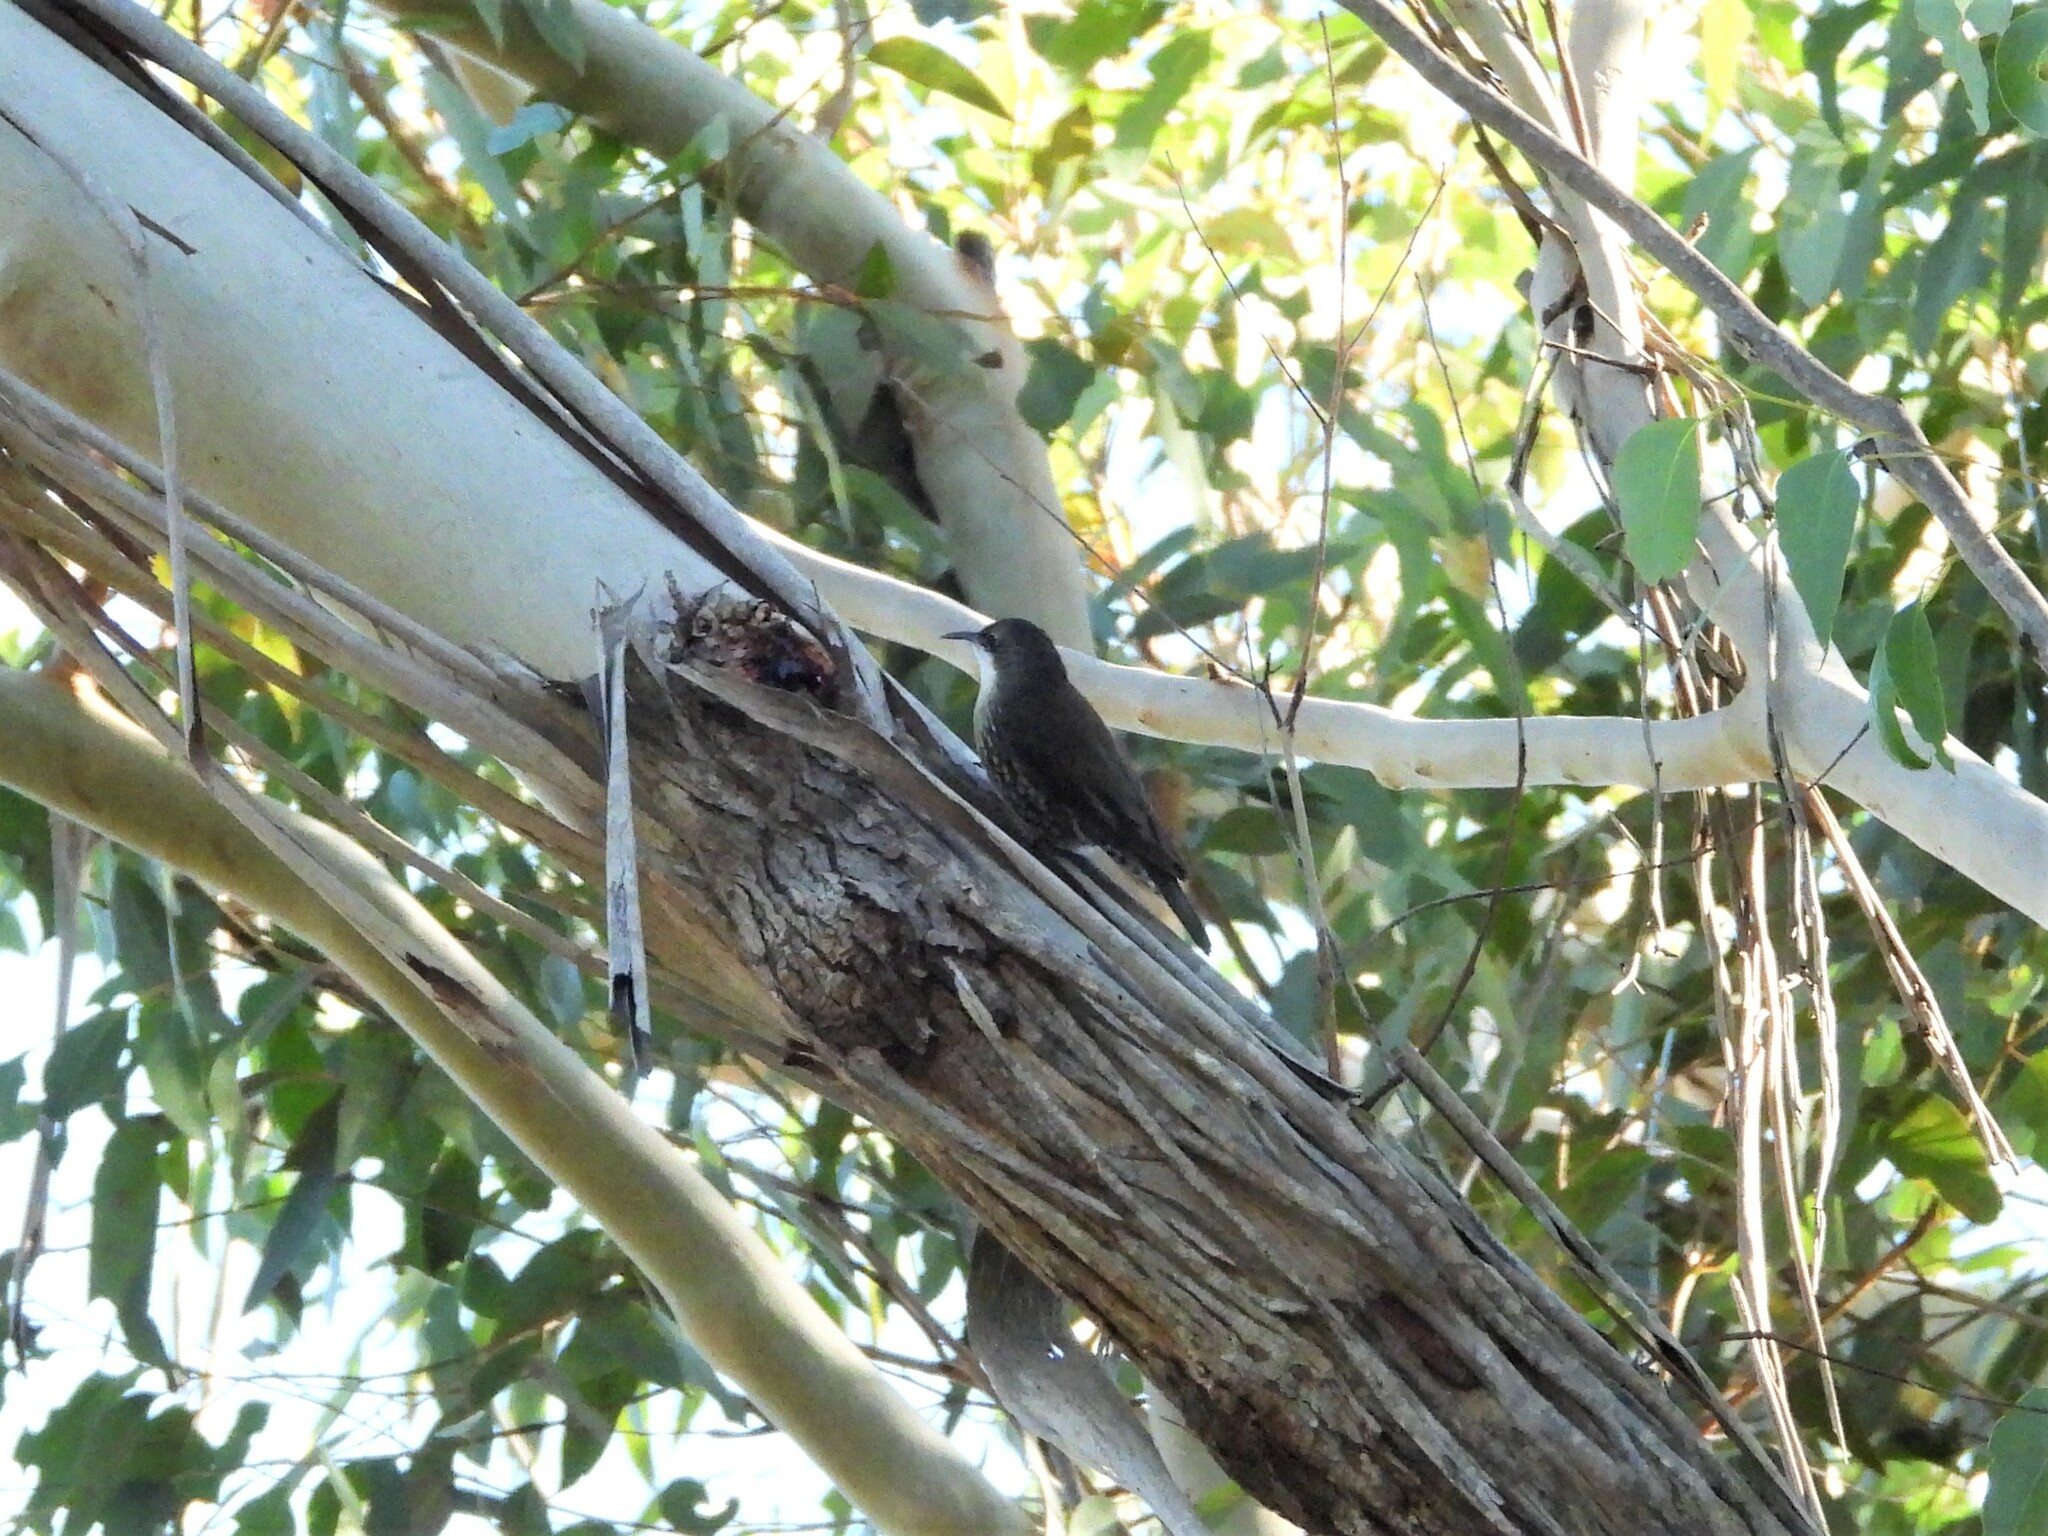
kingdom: Animalia
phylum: Chordata
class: Aves
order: Passeriformes
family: Climacteridae
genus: Cormobates
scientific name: Cormobates leucophaea
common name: White-throated treecreeper
